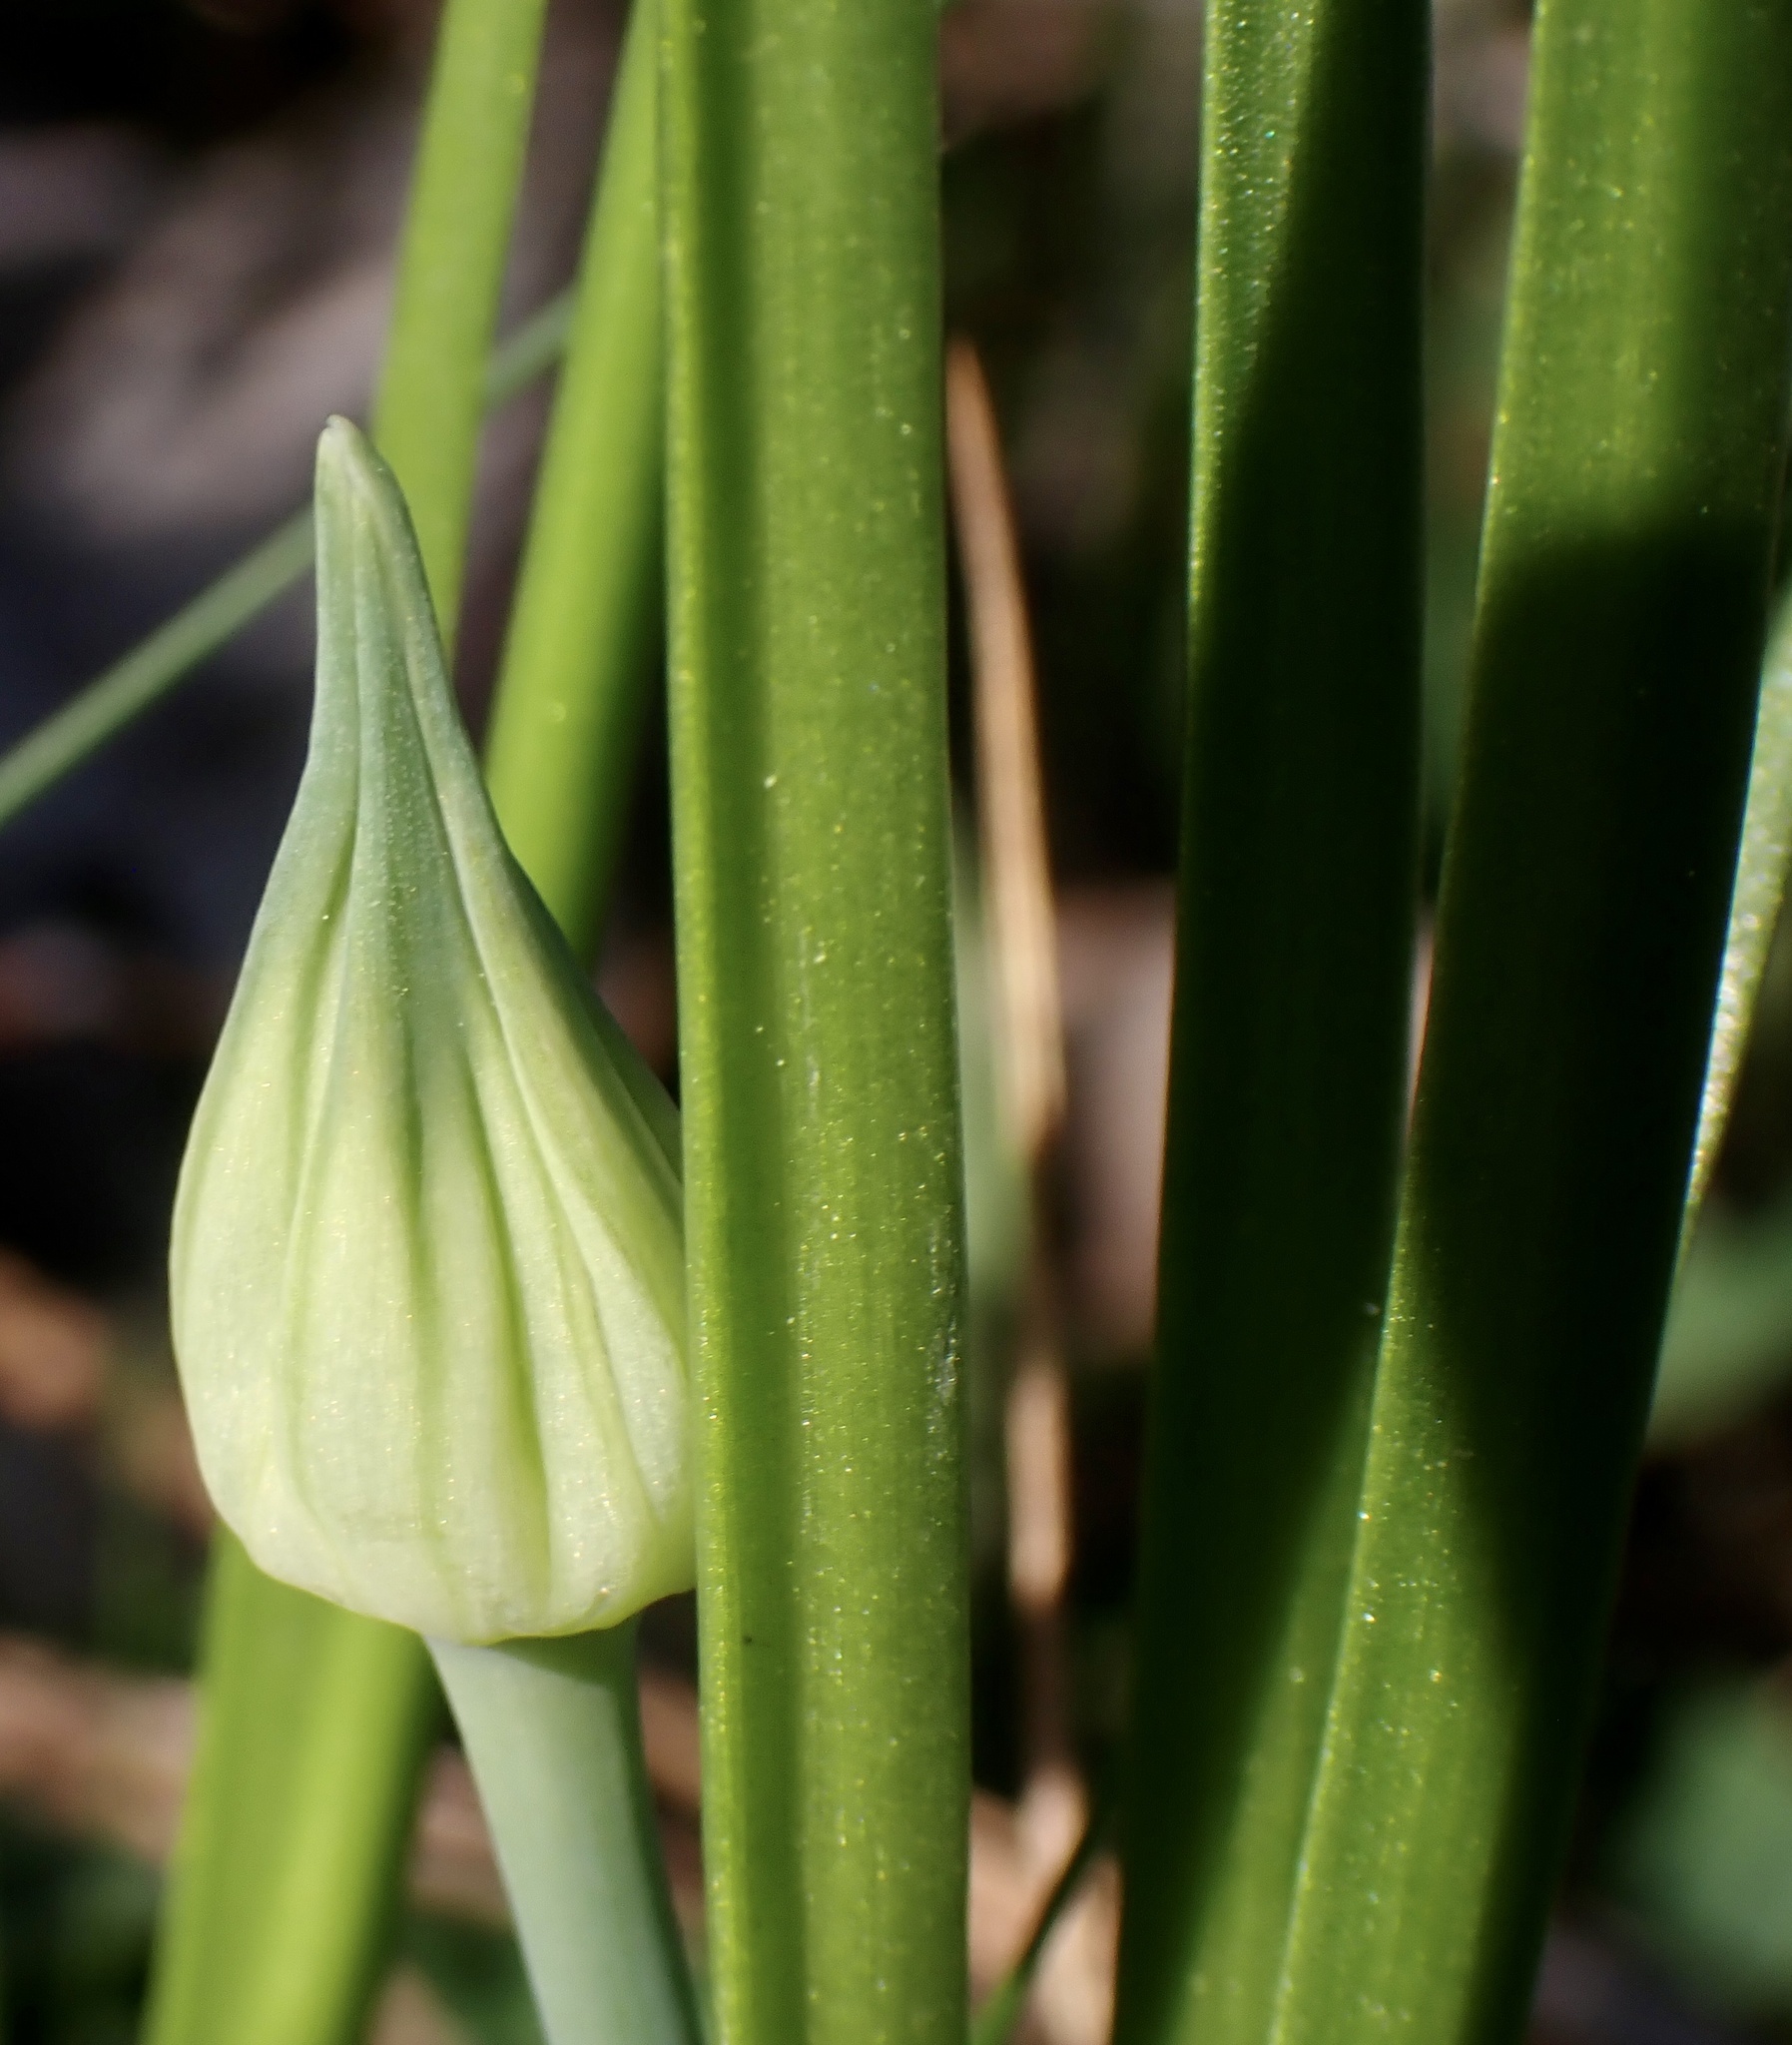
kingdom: Plantae
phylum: Tracheophyta
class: Liliopsida
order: Asparagales
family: Amaryllidaceae
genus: Allium
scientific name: Allium canadense
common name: Meadow garlic
